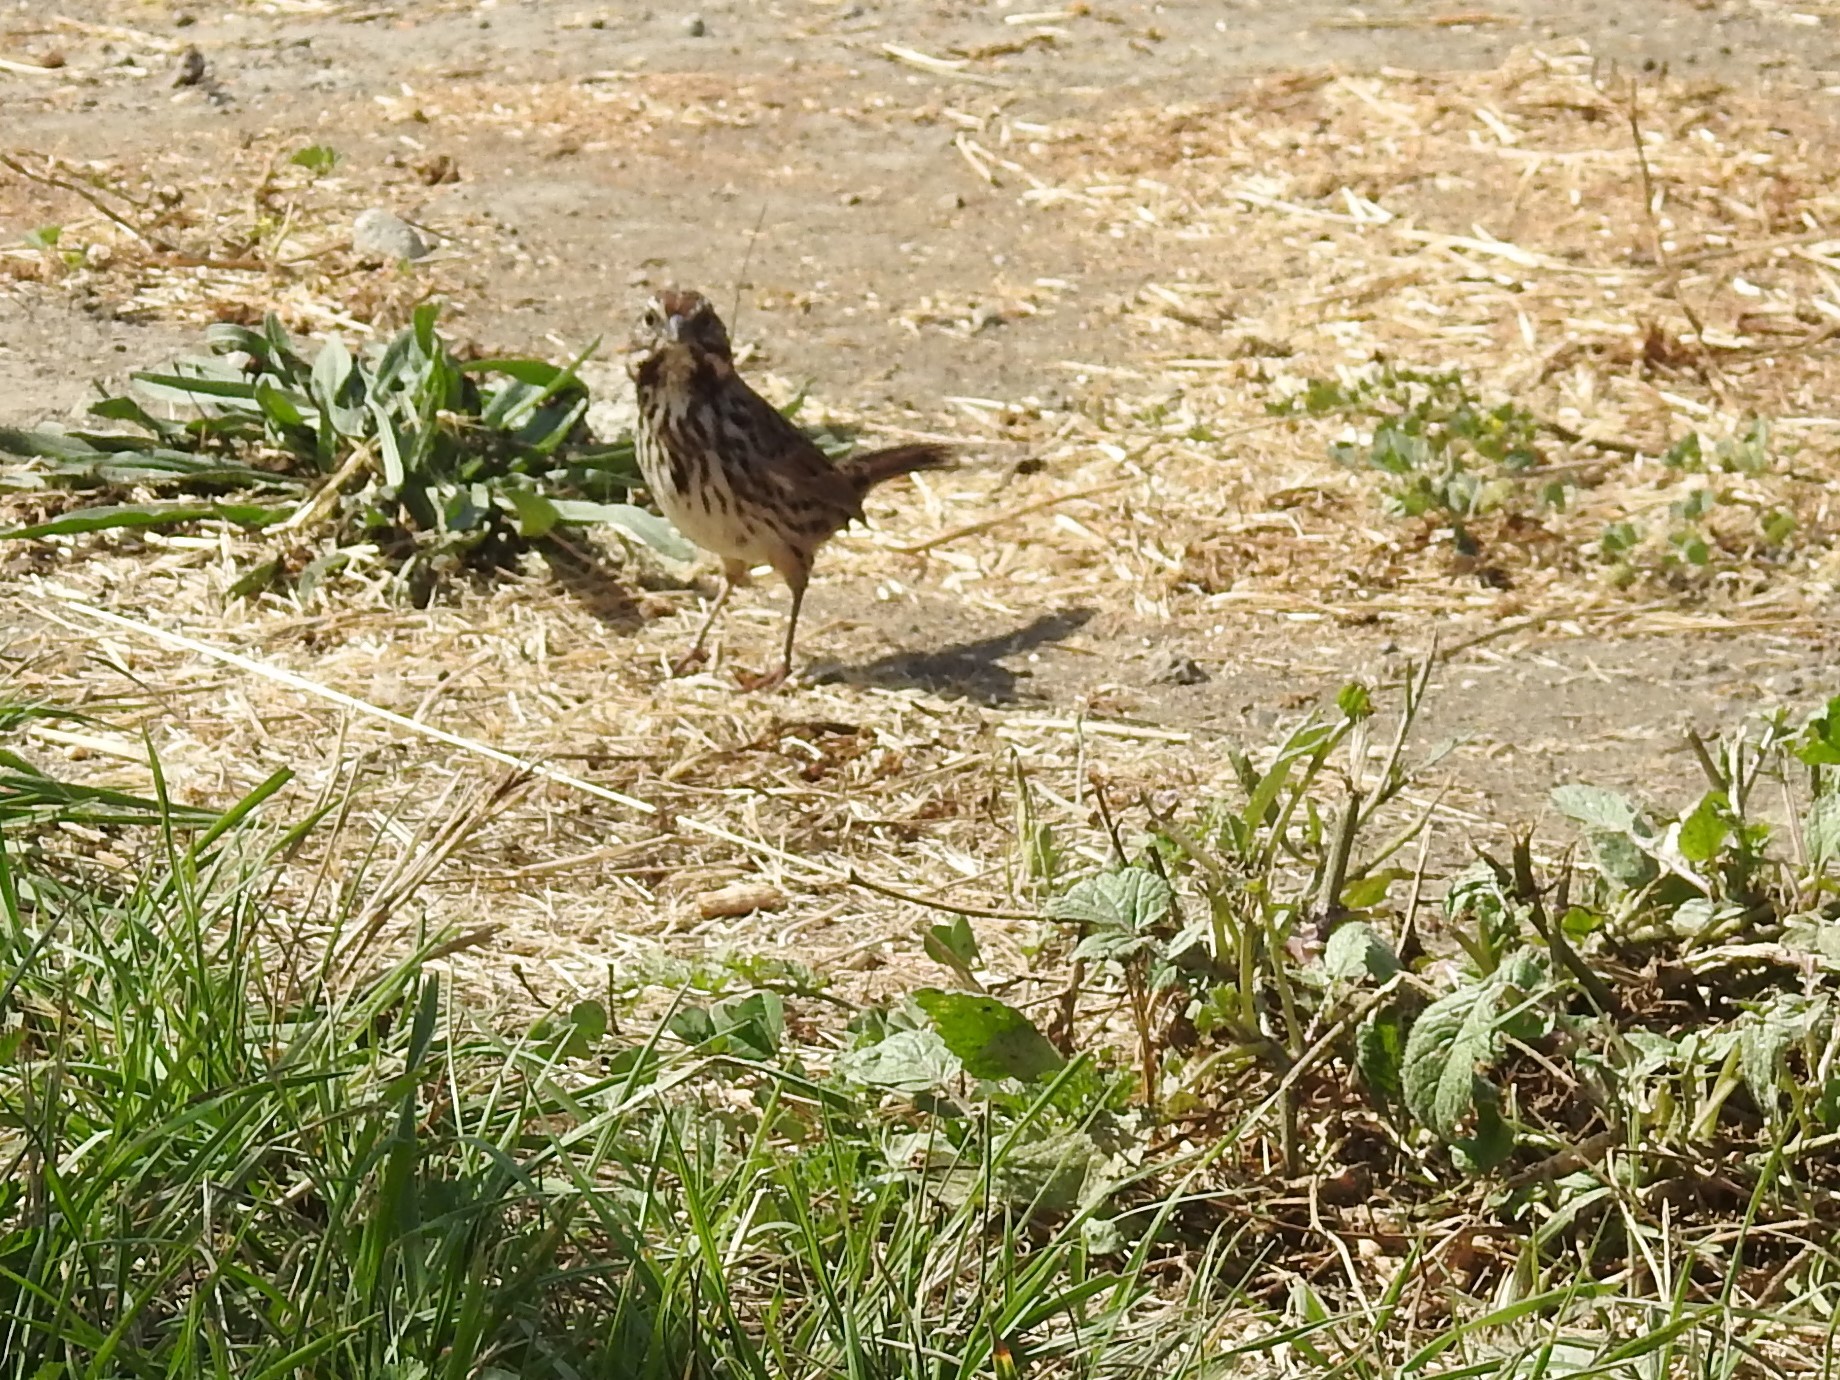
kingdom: Animalia
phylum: Chordata
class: Aves
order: Passeriformes
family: Passerellidae
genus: Melospiza
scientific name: Melospiza melodia
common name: Song sparrow
